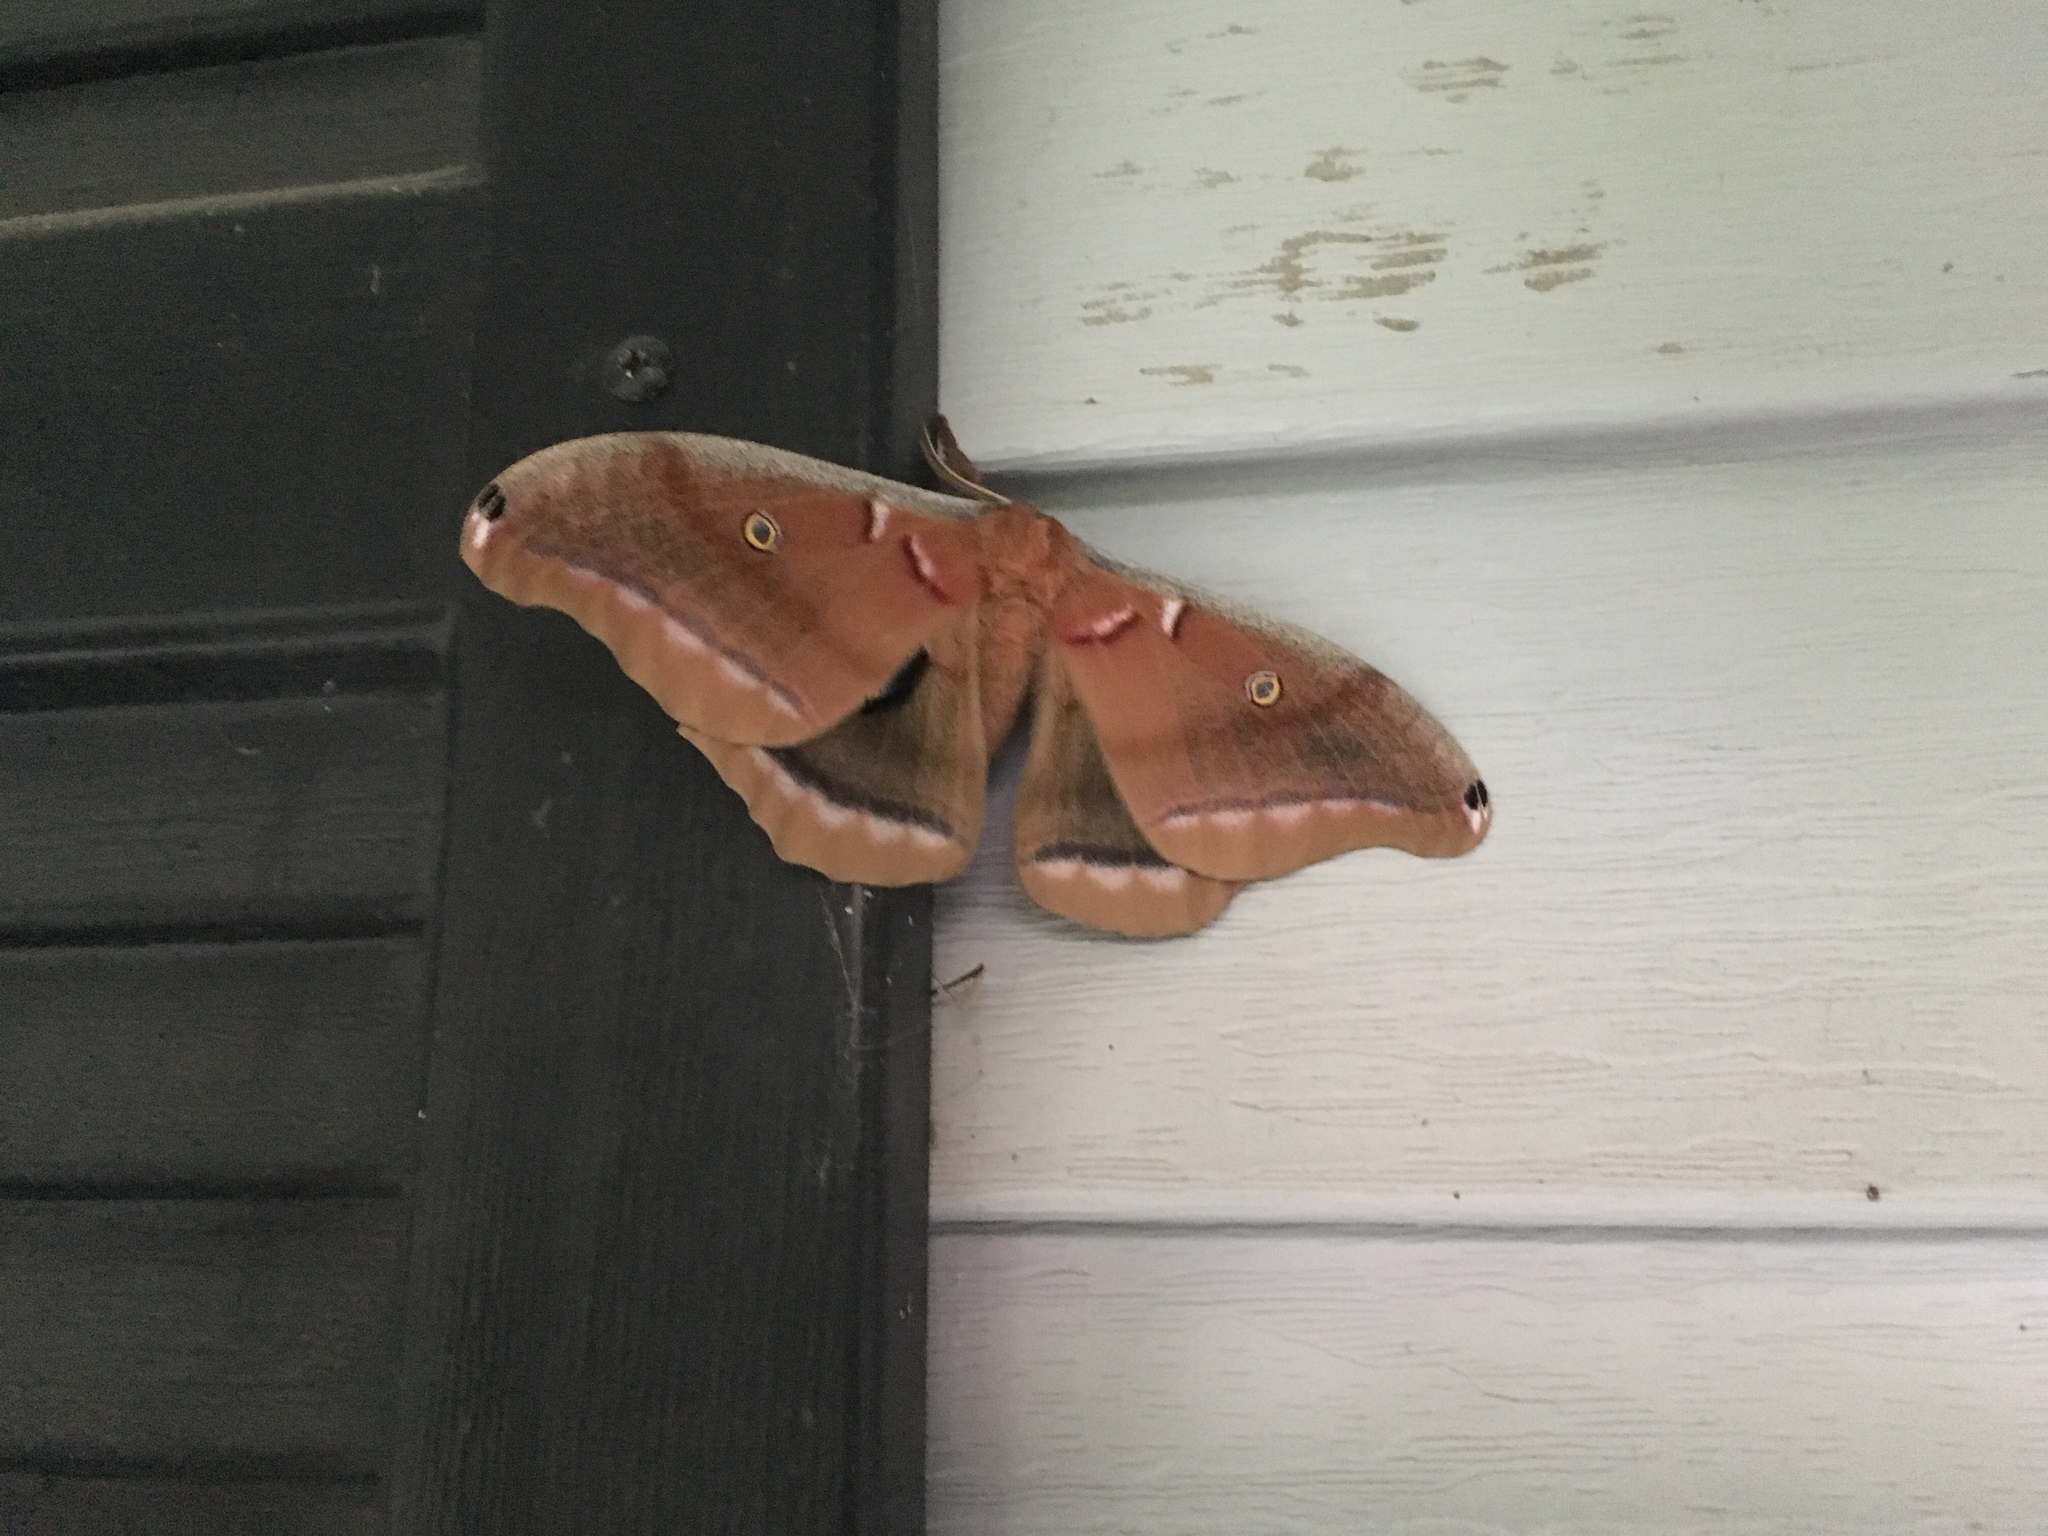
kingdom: Animalia
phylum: Arthropoda
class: Insecta
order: Lepidoptera
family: Saturniidae
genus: Antheraea
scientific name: Antheraea polyphemus
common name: Polyphemus moth
